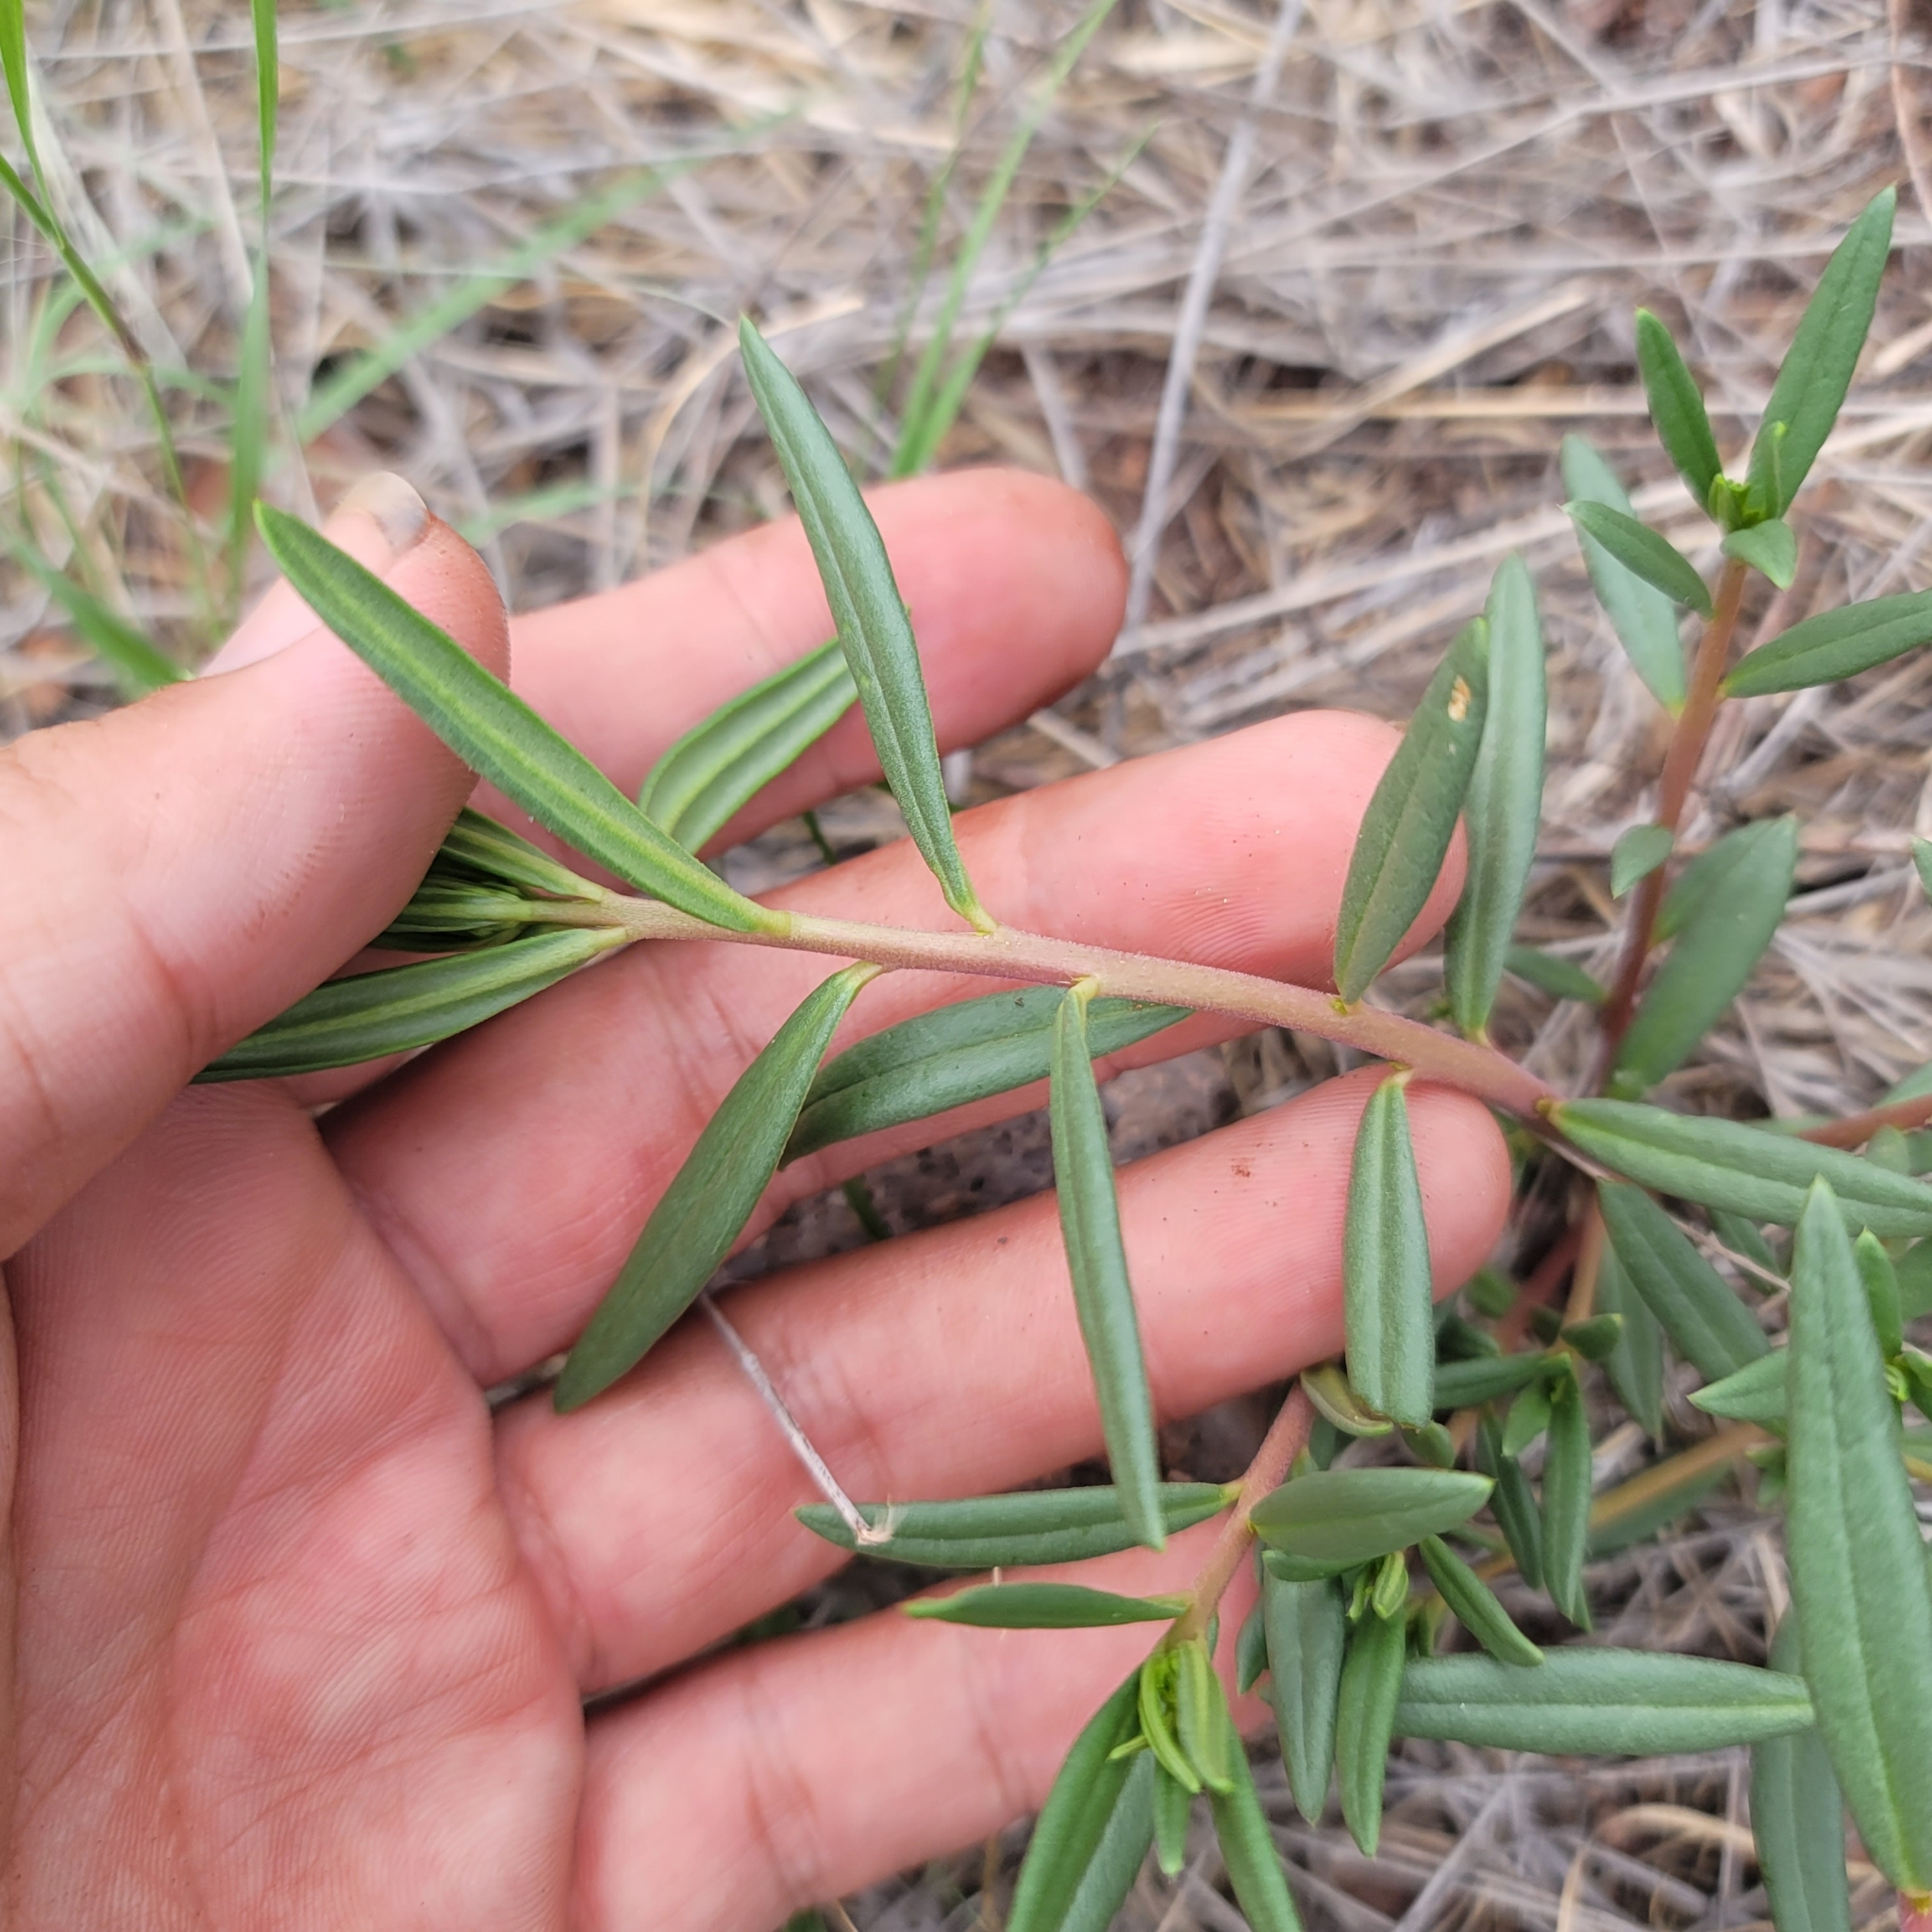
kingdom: Plantae
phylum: Tracheophyta
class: Magnoliopsida
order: Caryophyllales
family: Montiaceae
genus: Phemeranthus
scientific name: Phemeranthus aurantiacus
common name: Orange fameflower
